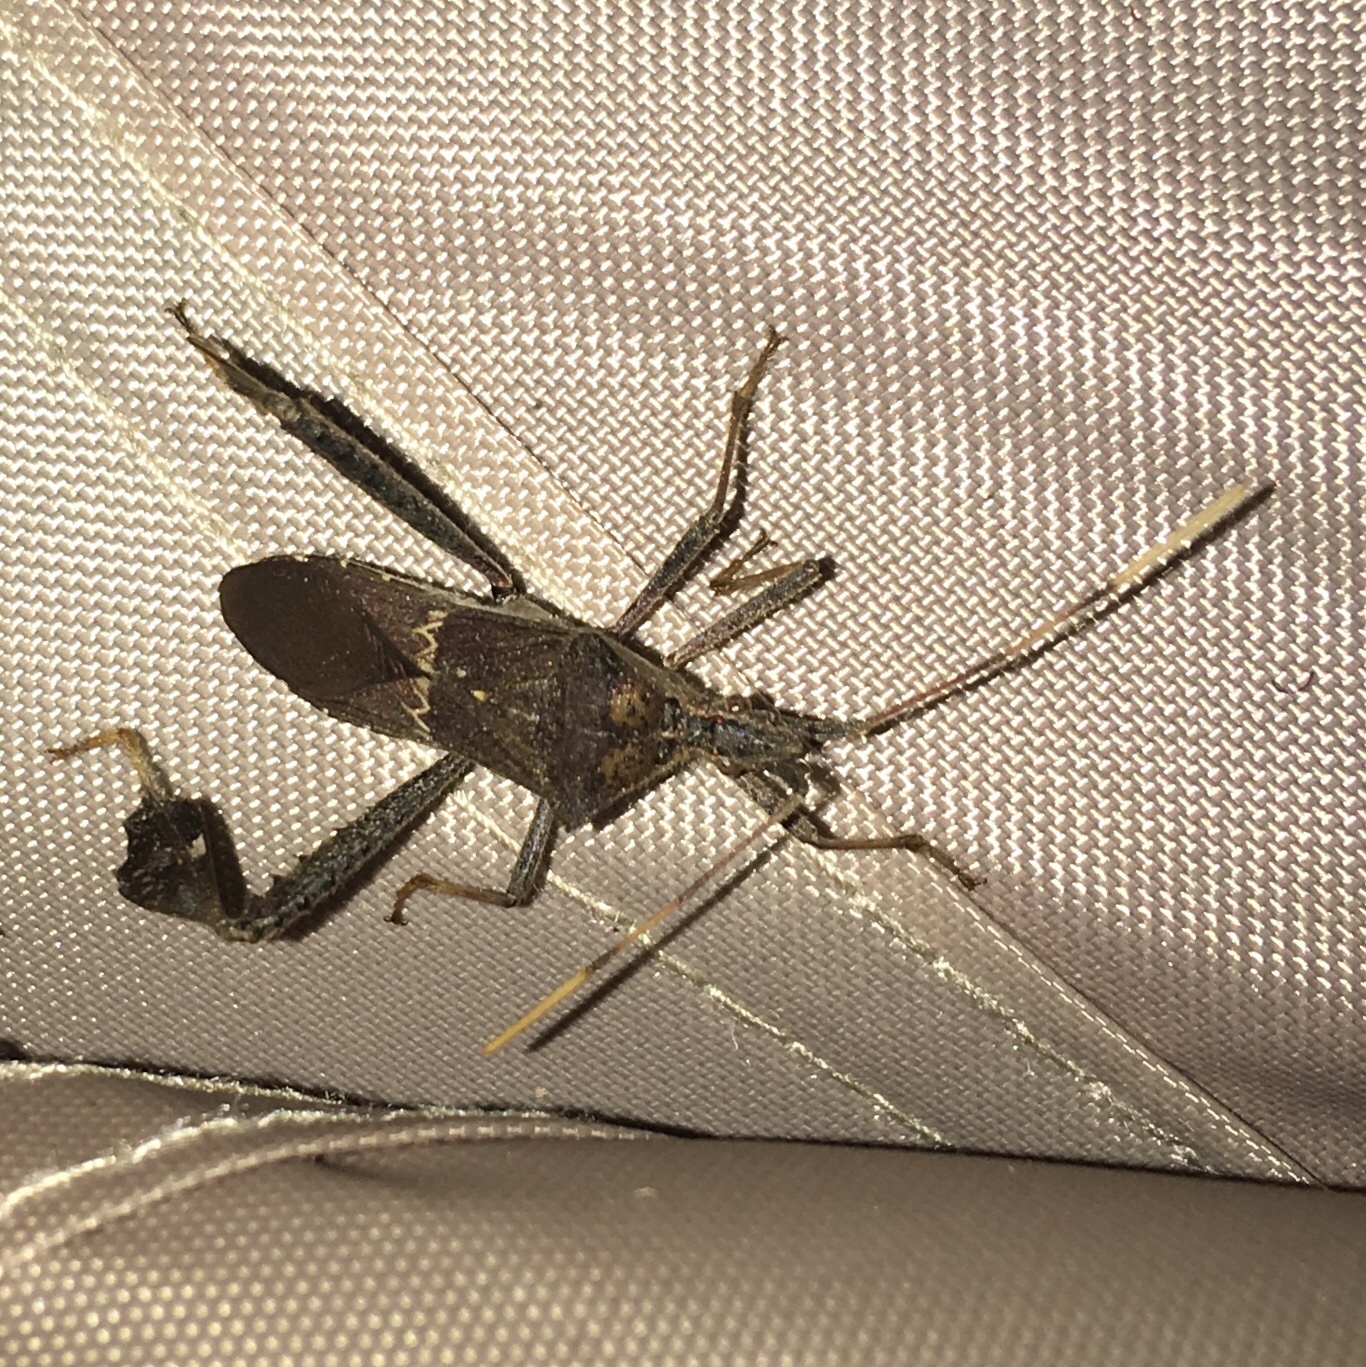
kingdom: Animalia
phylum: Arthropoda
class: Insecta
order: Hemiptera
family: Coreidae
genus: Leptoglossus
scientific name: Leptoglossus zonatus
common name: Large-legged bug
